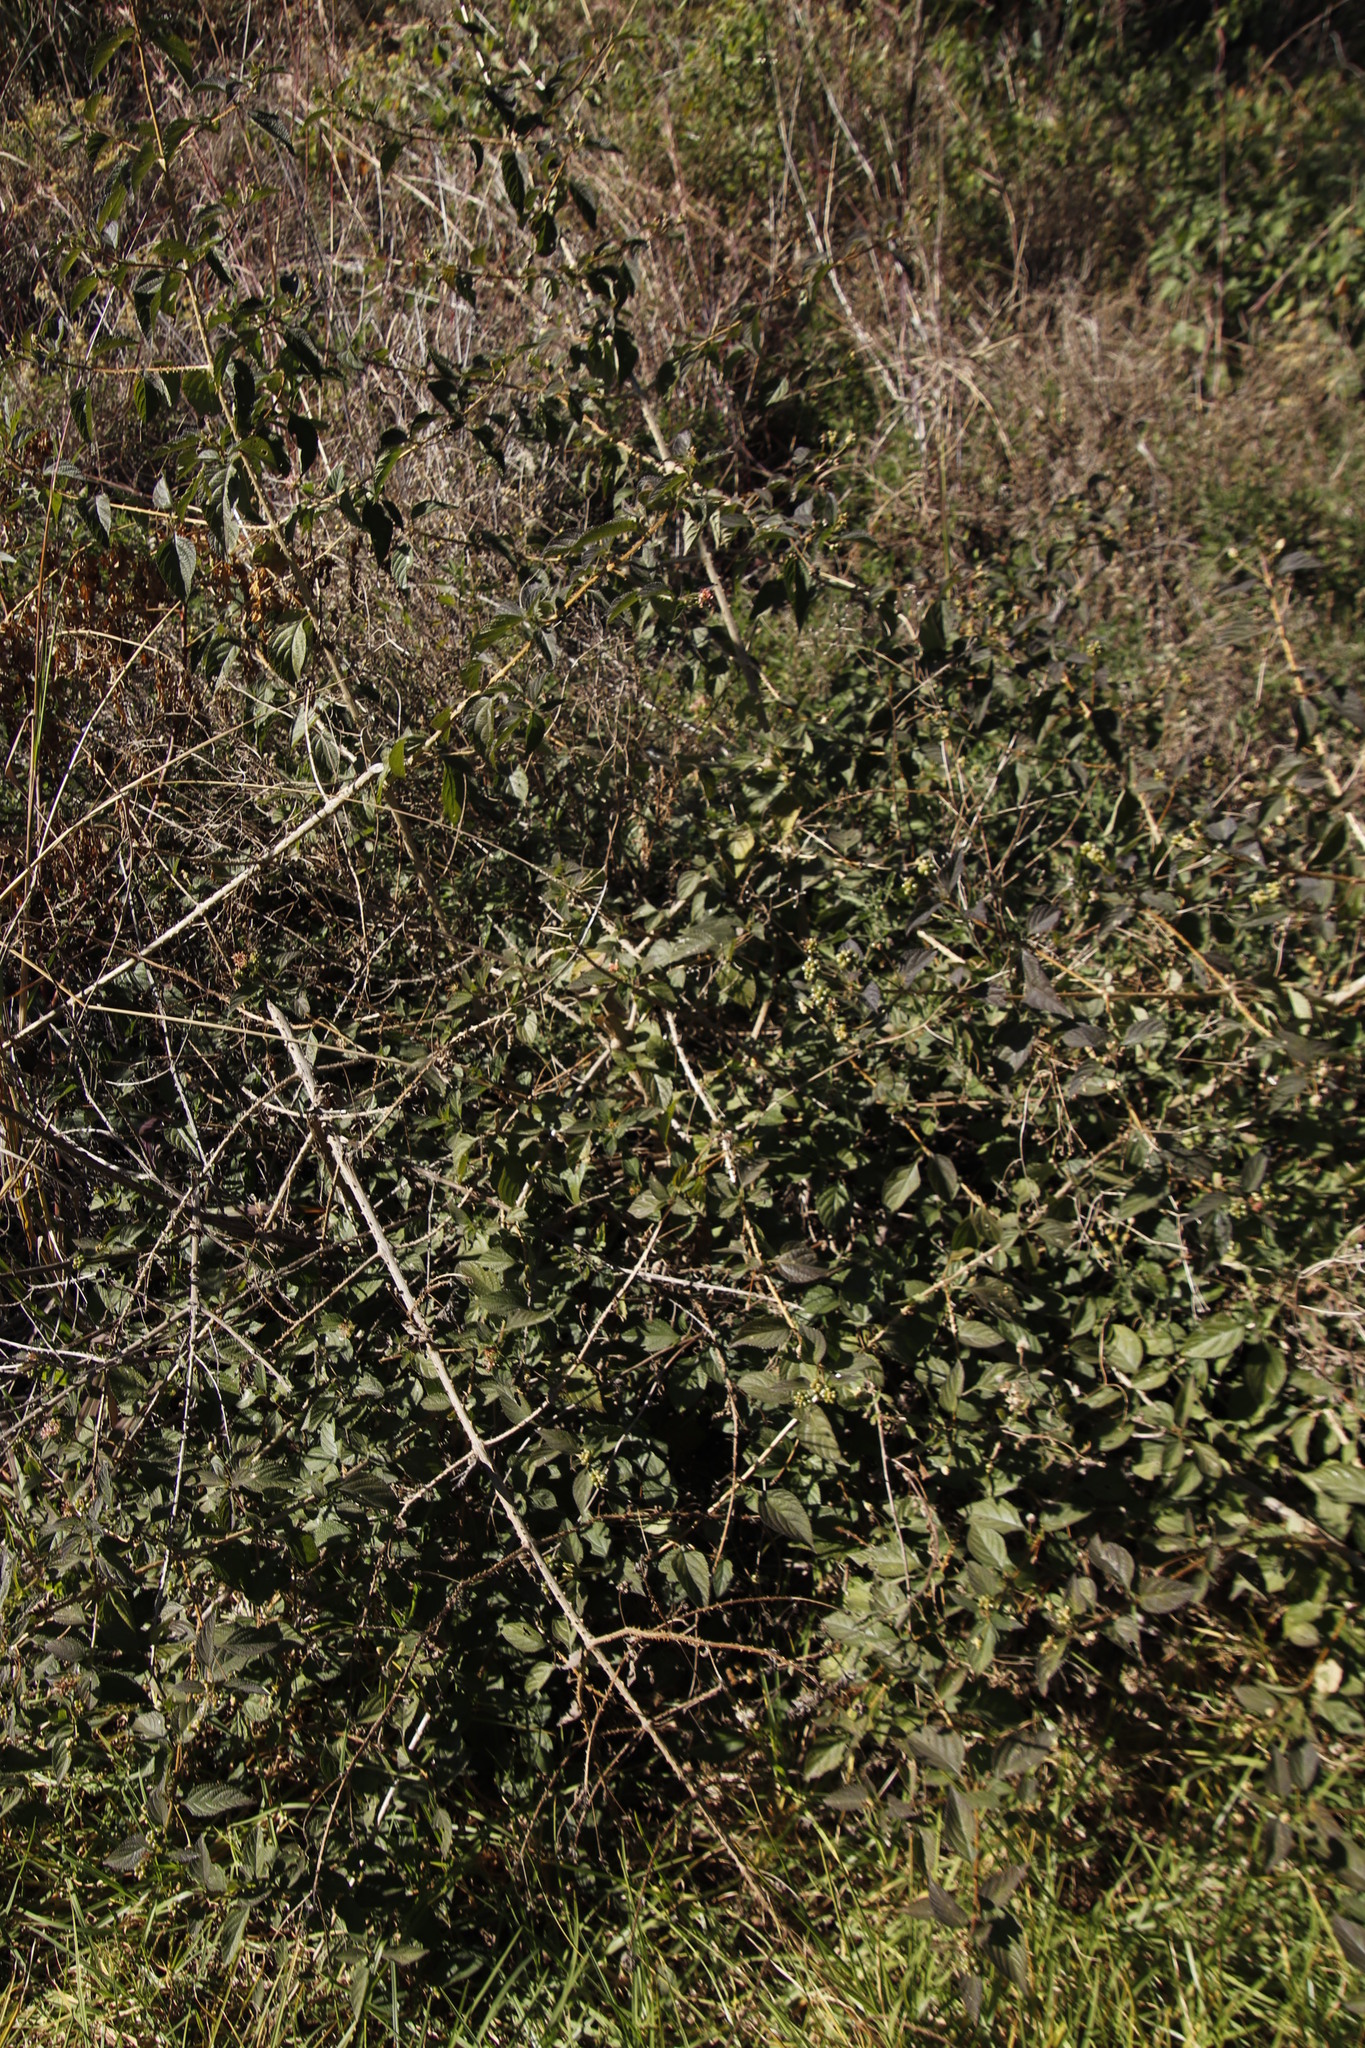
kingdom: Plantae
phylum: Tracheophyta
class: Magnoliopsida
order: Lamiales
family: Verbenaceae
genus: Lantana
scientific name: Lantana camara
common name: Lantana
